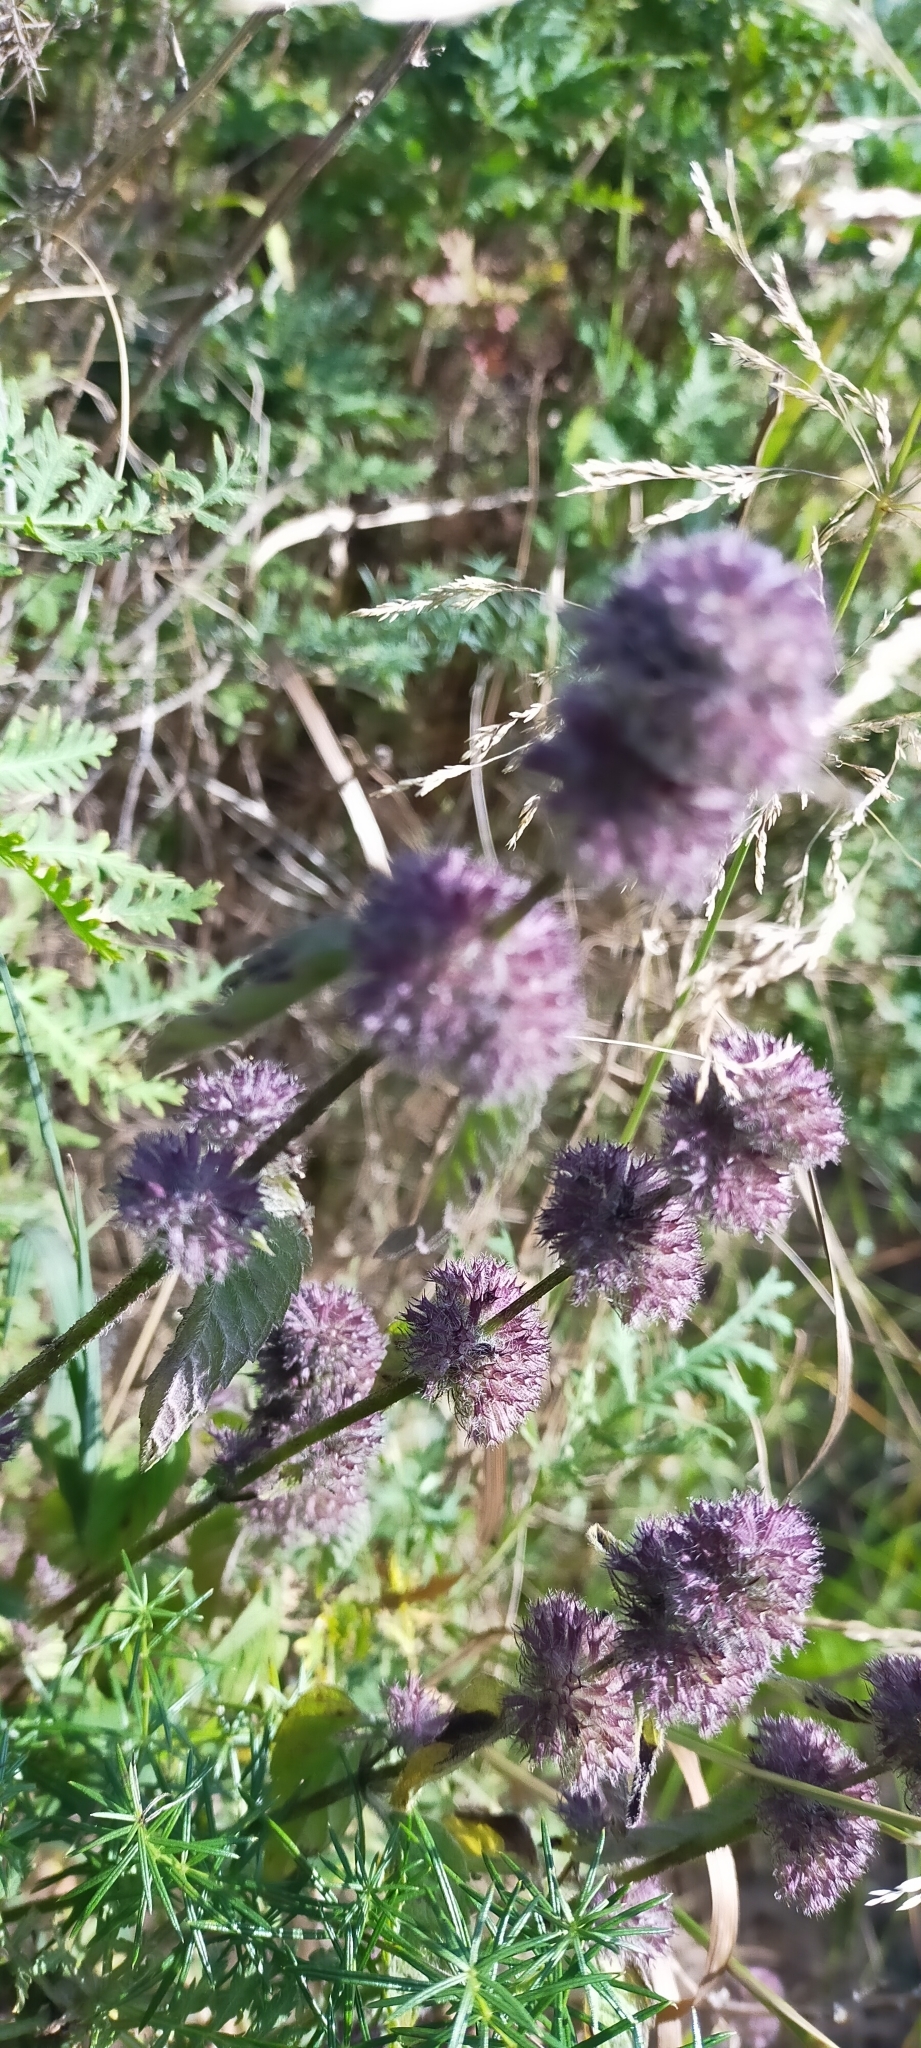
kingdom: Plantae
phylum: Tracheophyta
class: Magnoliopsida
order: Lamiales
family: Lamiaceae
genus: Clinopodium
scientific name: Clinopodium chinense
